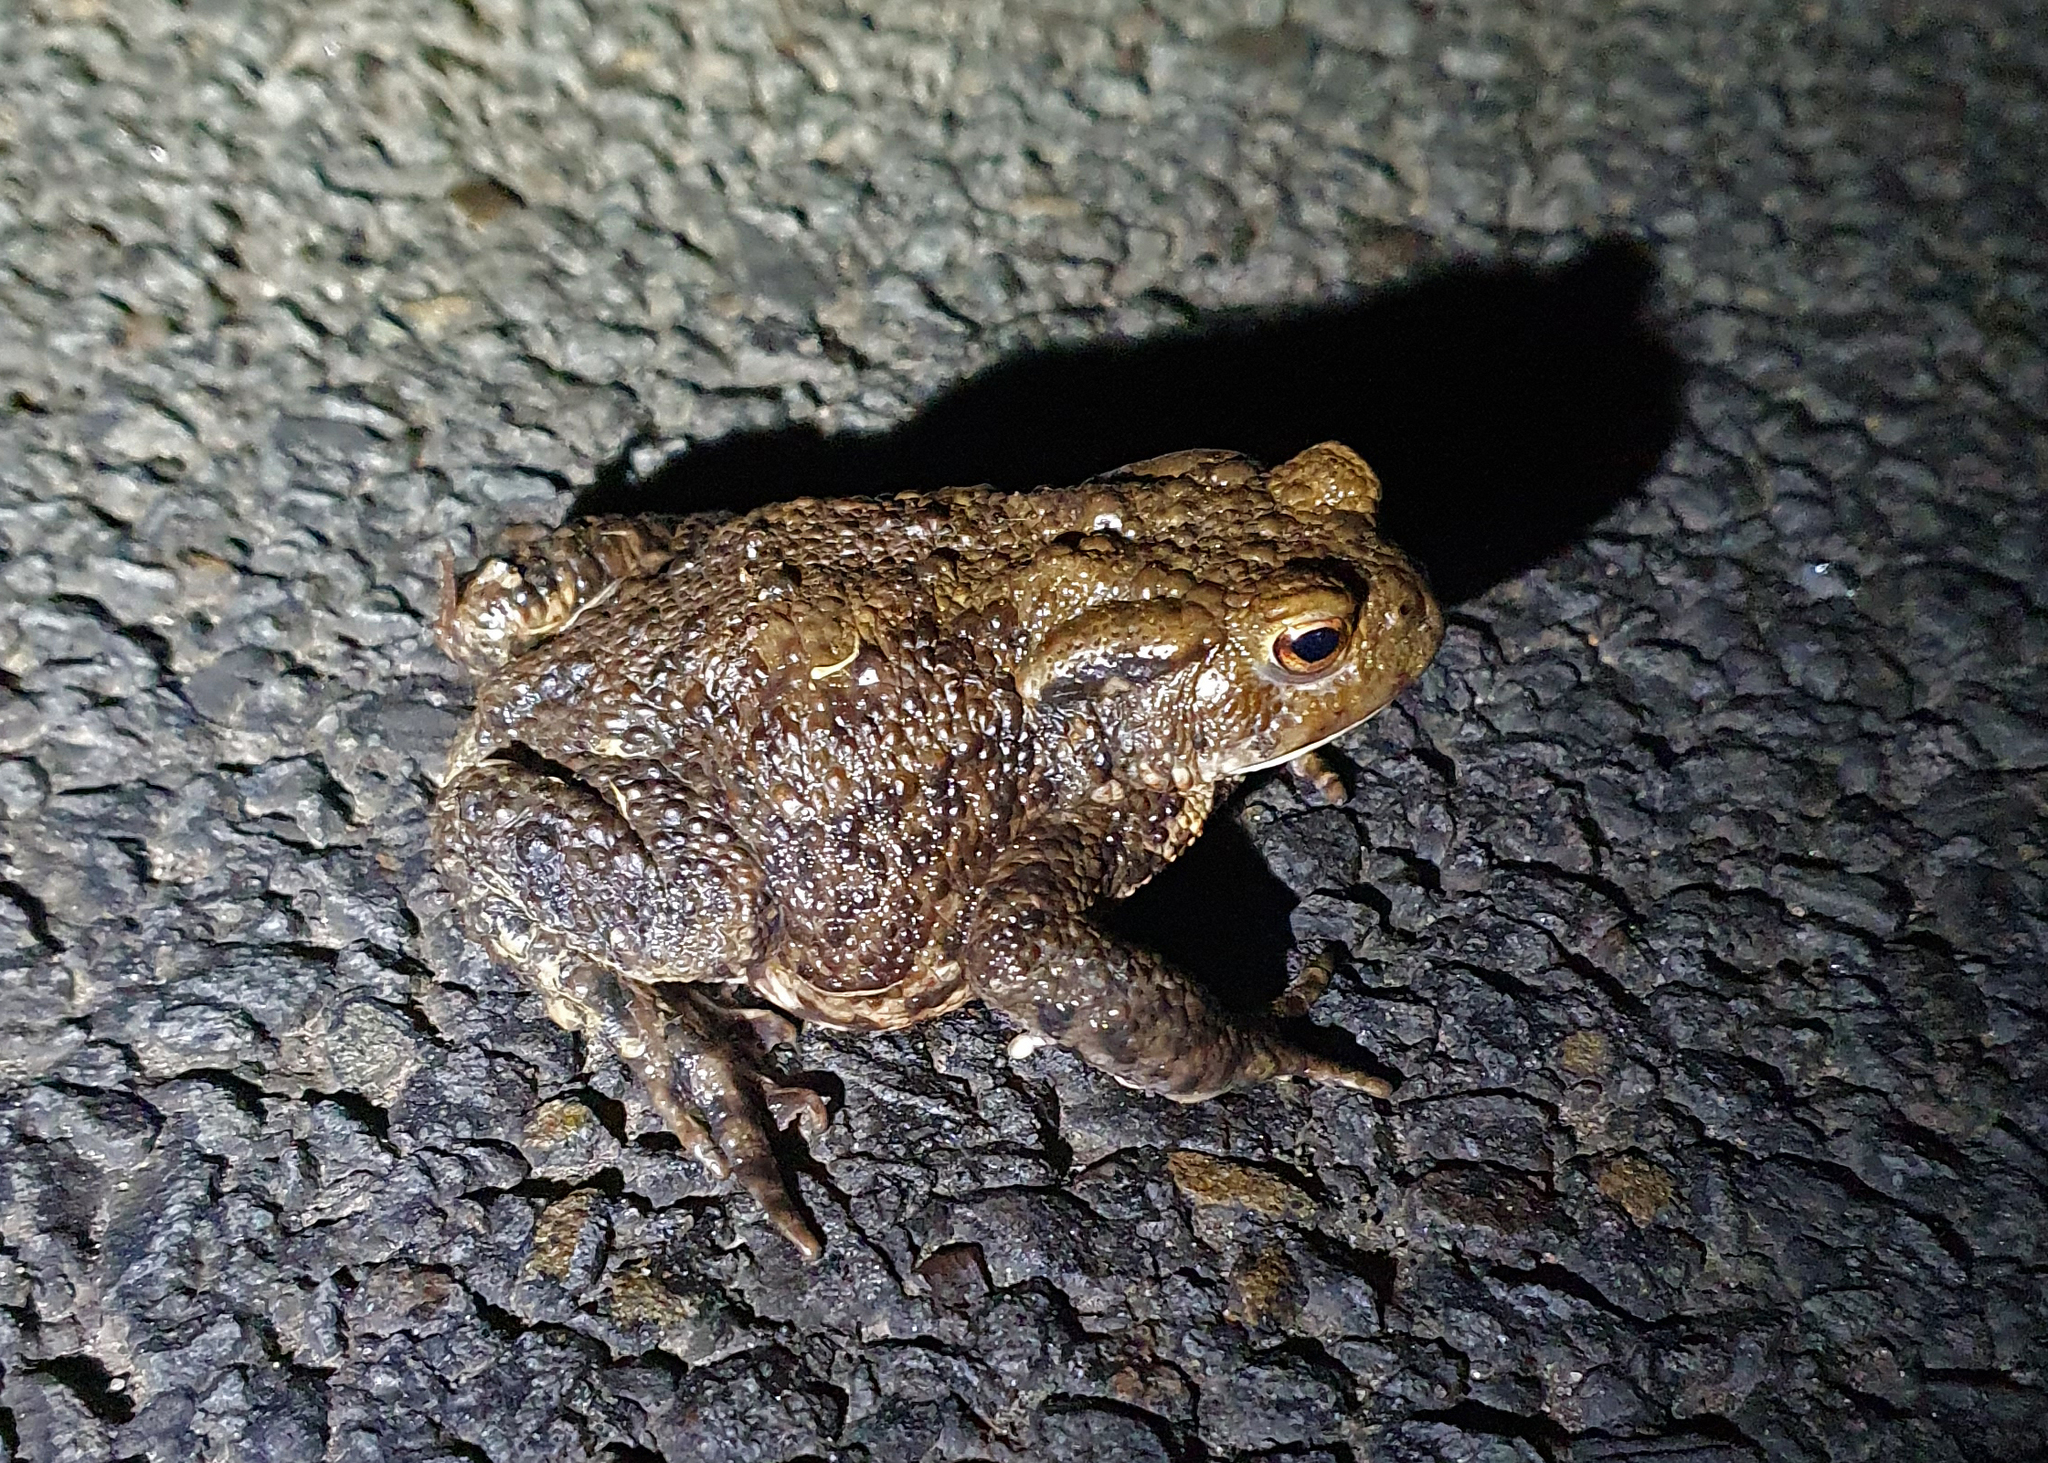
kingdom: Animalia
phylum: Chordata
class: Amphibia
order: Anura
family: Bufonidae
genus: Bufo
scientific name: Bufo bufo
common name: Common toad
